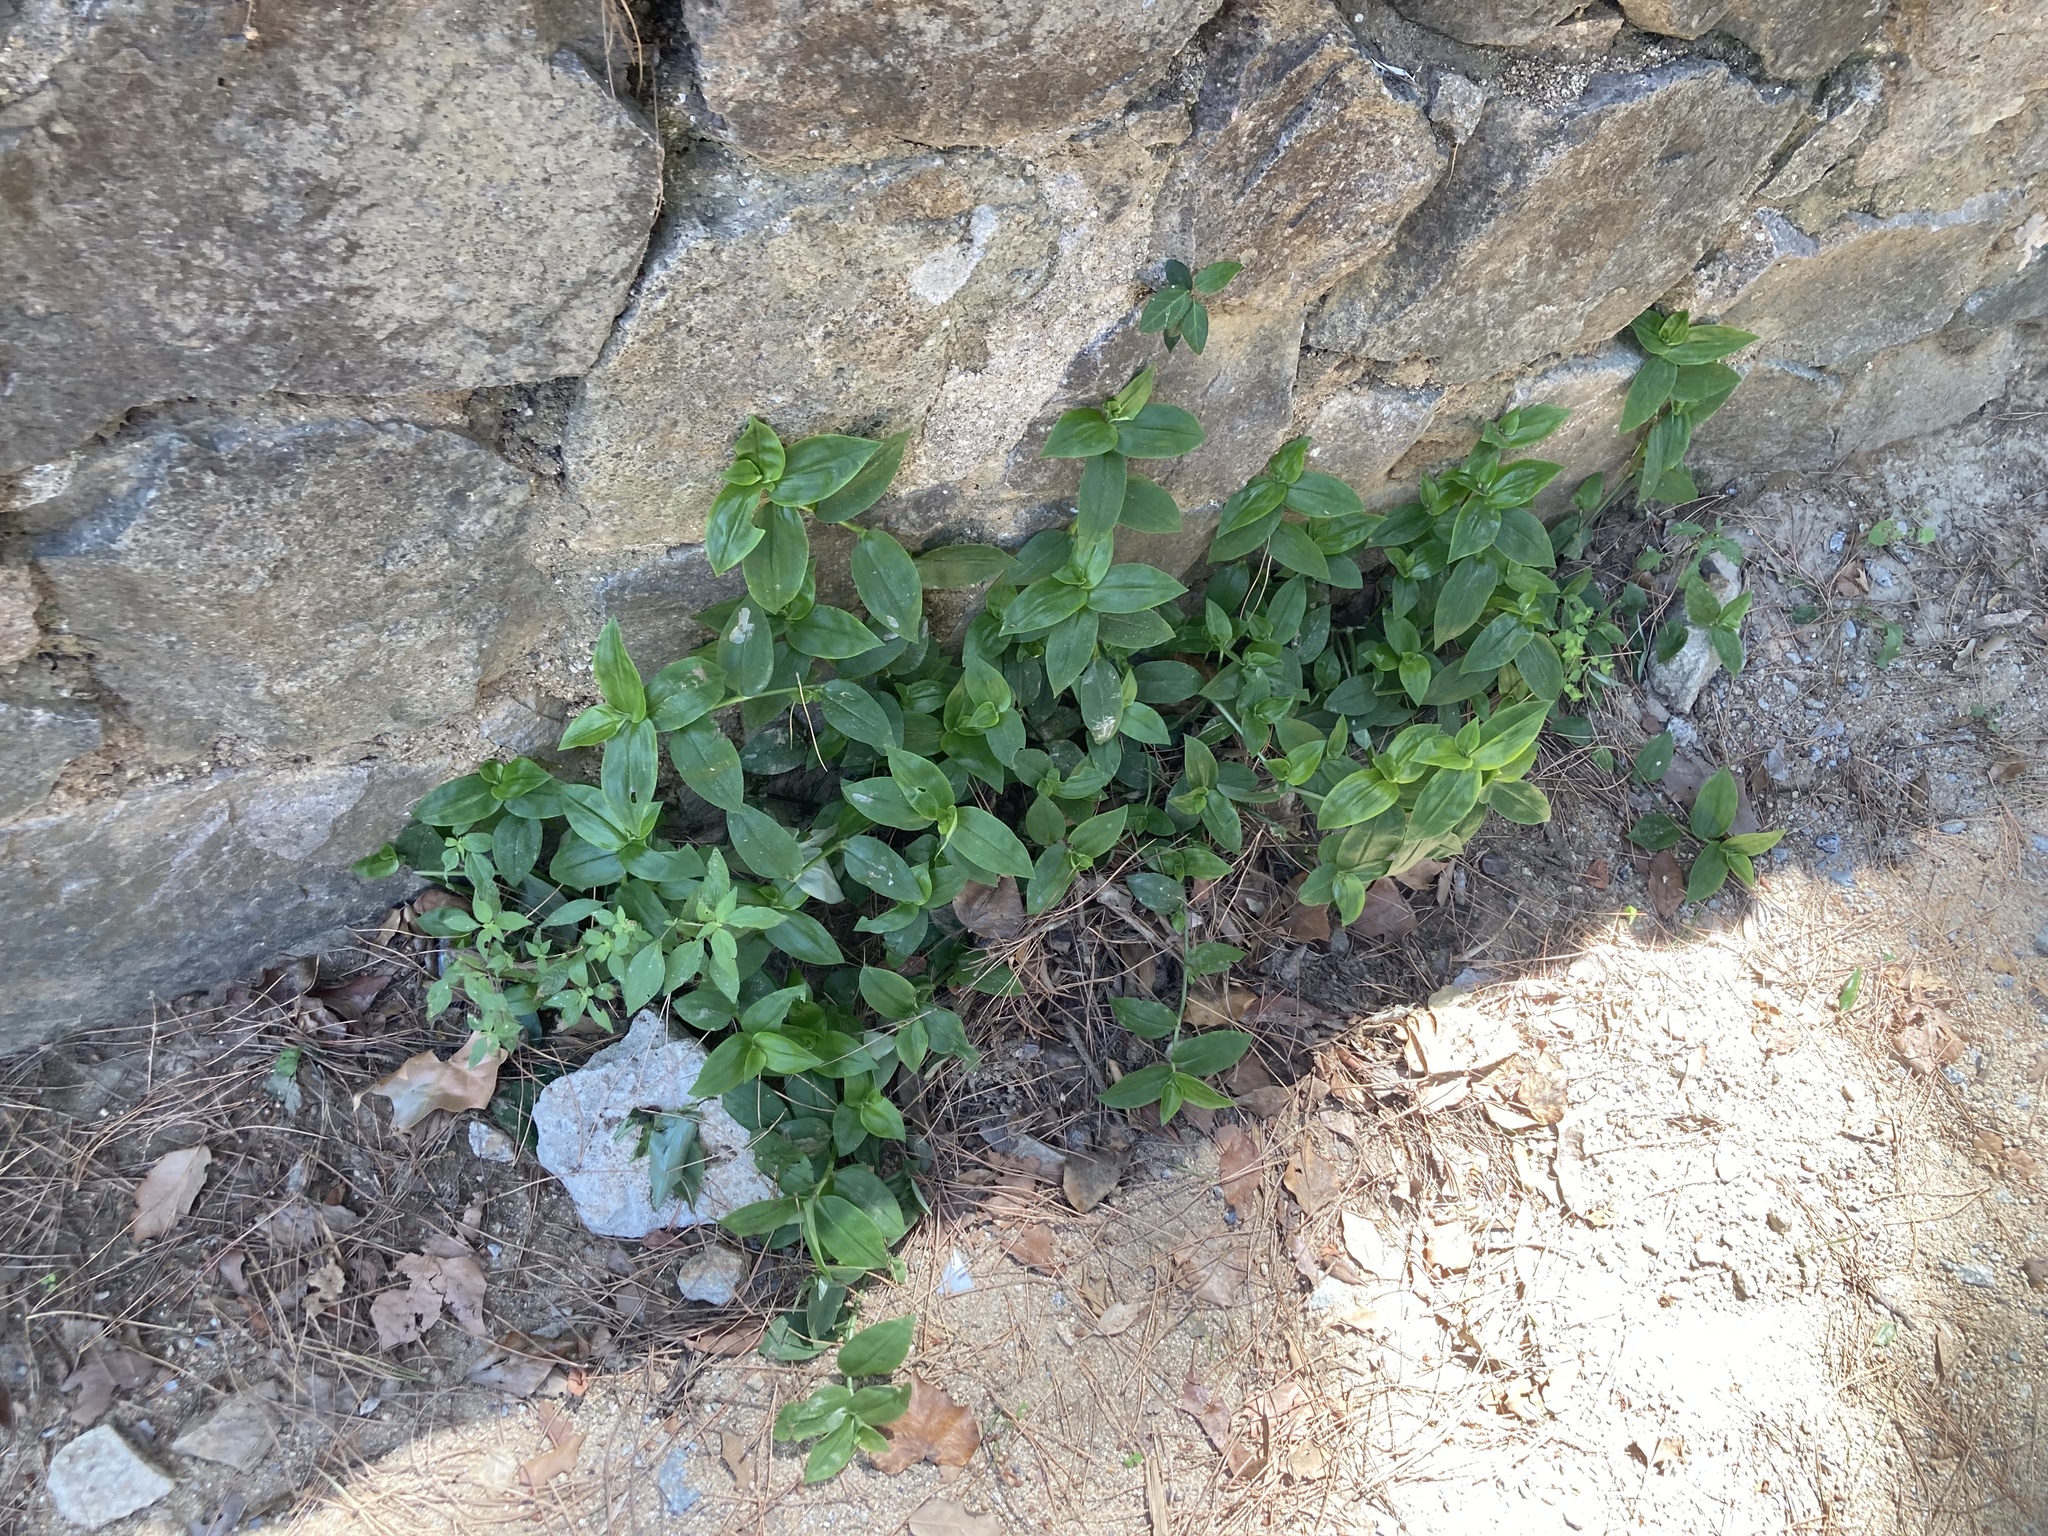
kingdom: Plantae
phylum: Tracheophyta
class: Liliopsida
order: Commelinales
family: Commelinaceae
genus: Tradescantia
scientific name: Tradescantia fluminensis
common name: Wandering-jew
